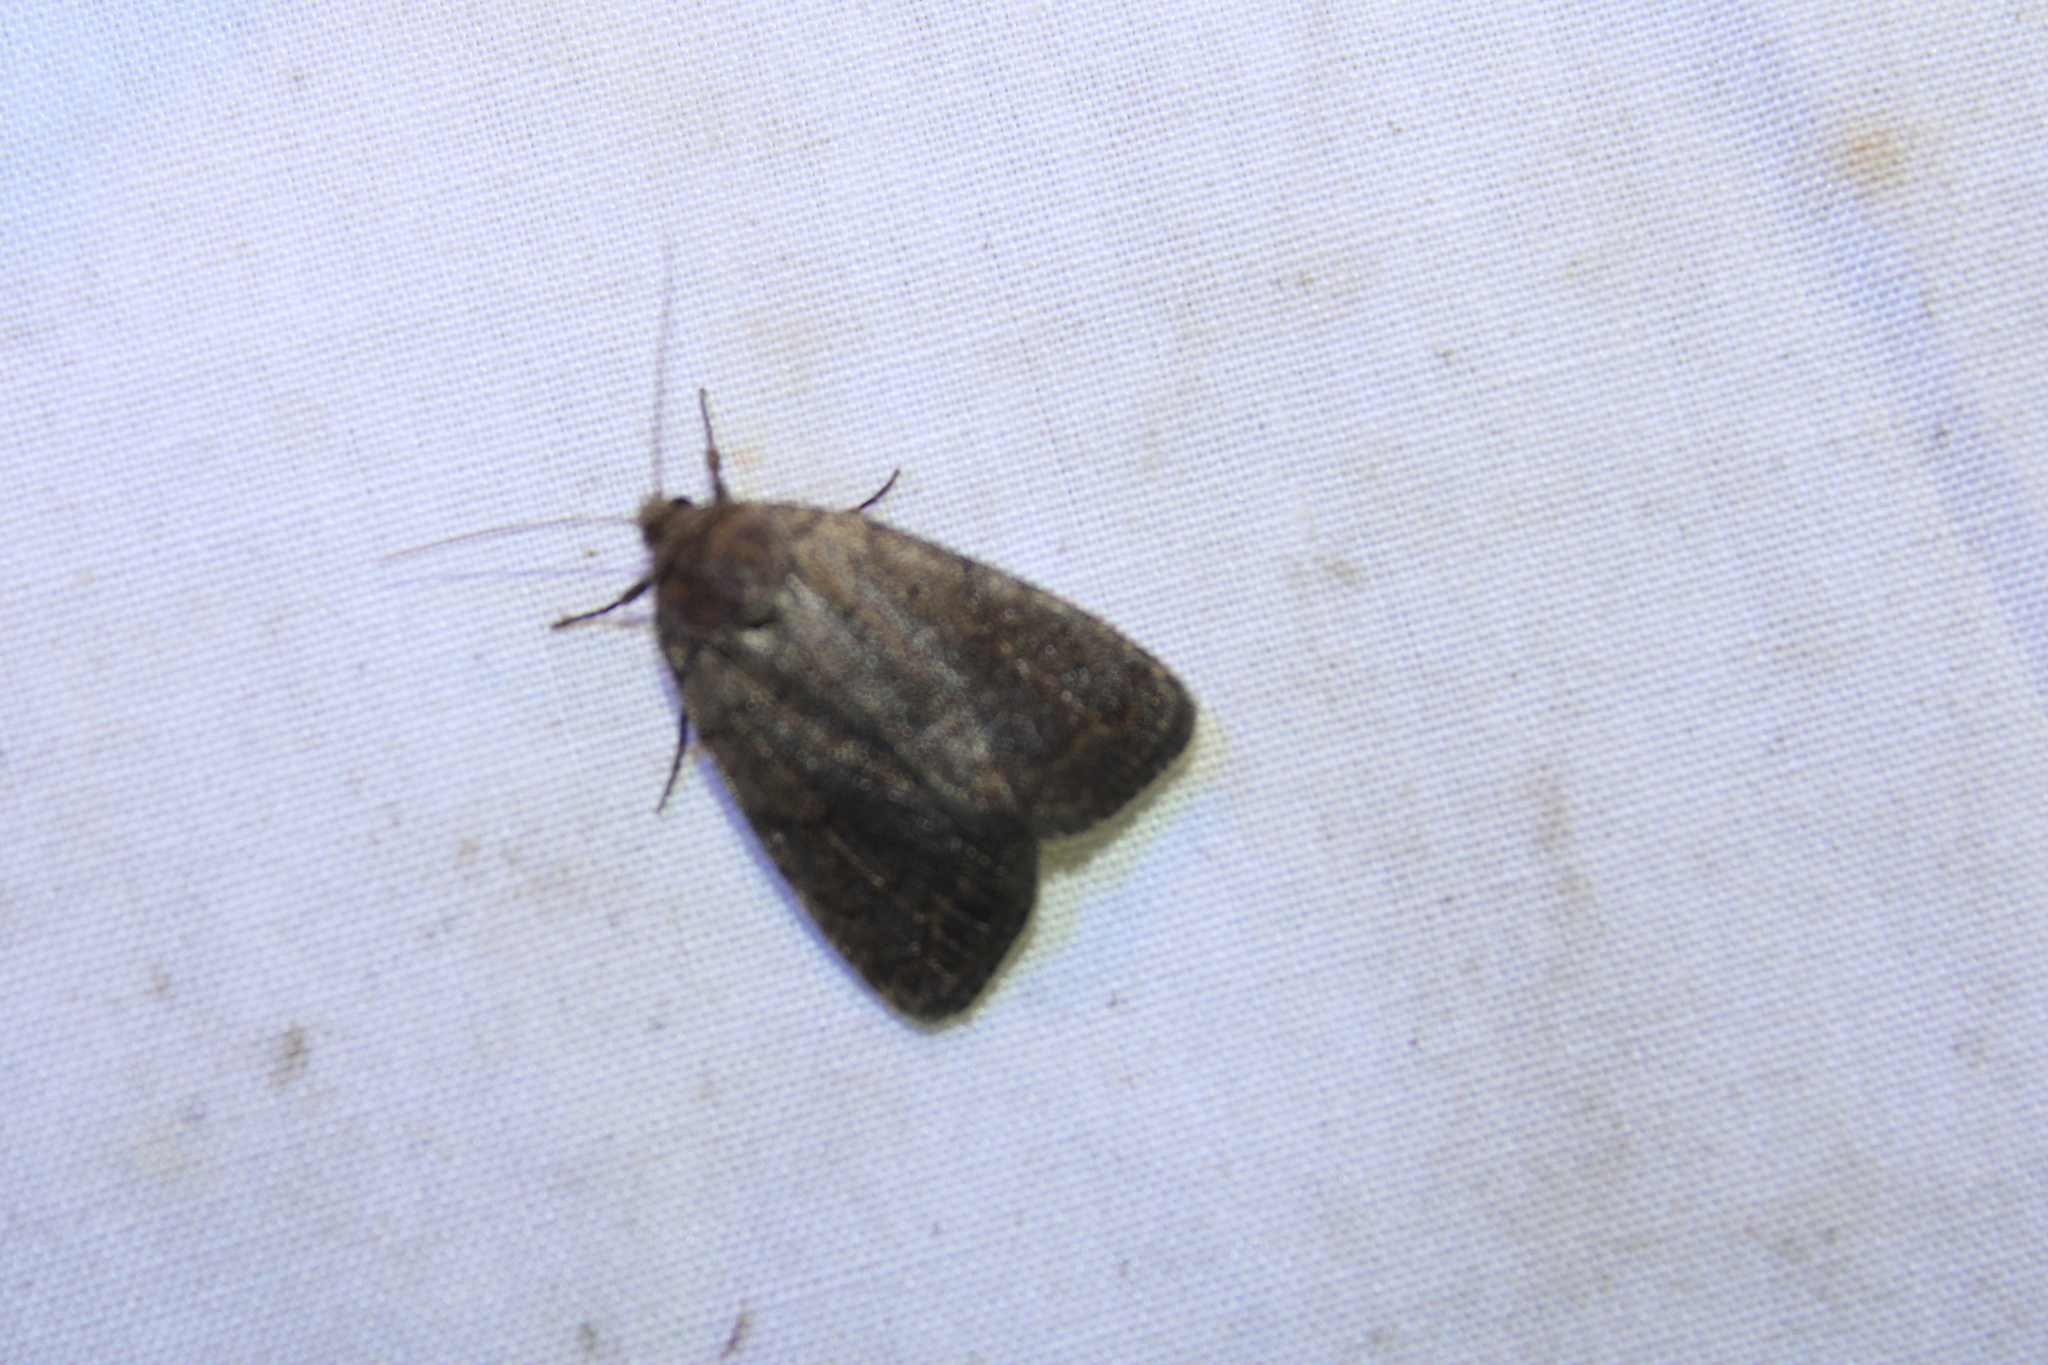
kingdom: Animalia
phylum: Arthropoda
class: Insecta
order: Lepidoptera
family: Noctuidae
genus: Athetis
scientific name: Athetis tarda
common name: Slowpoke moth
